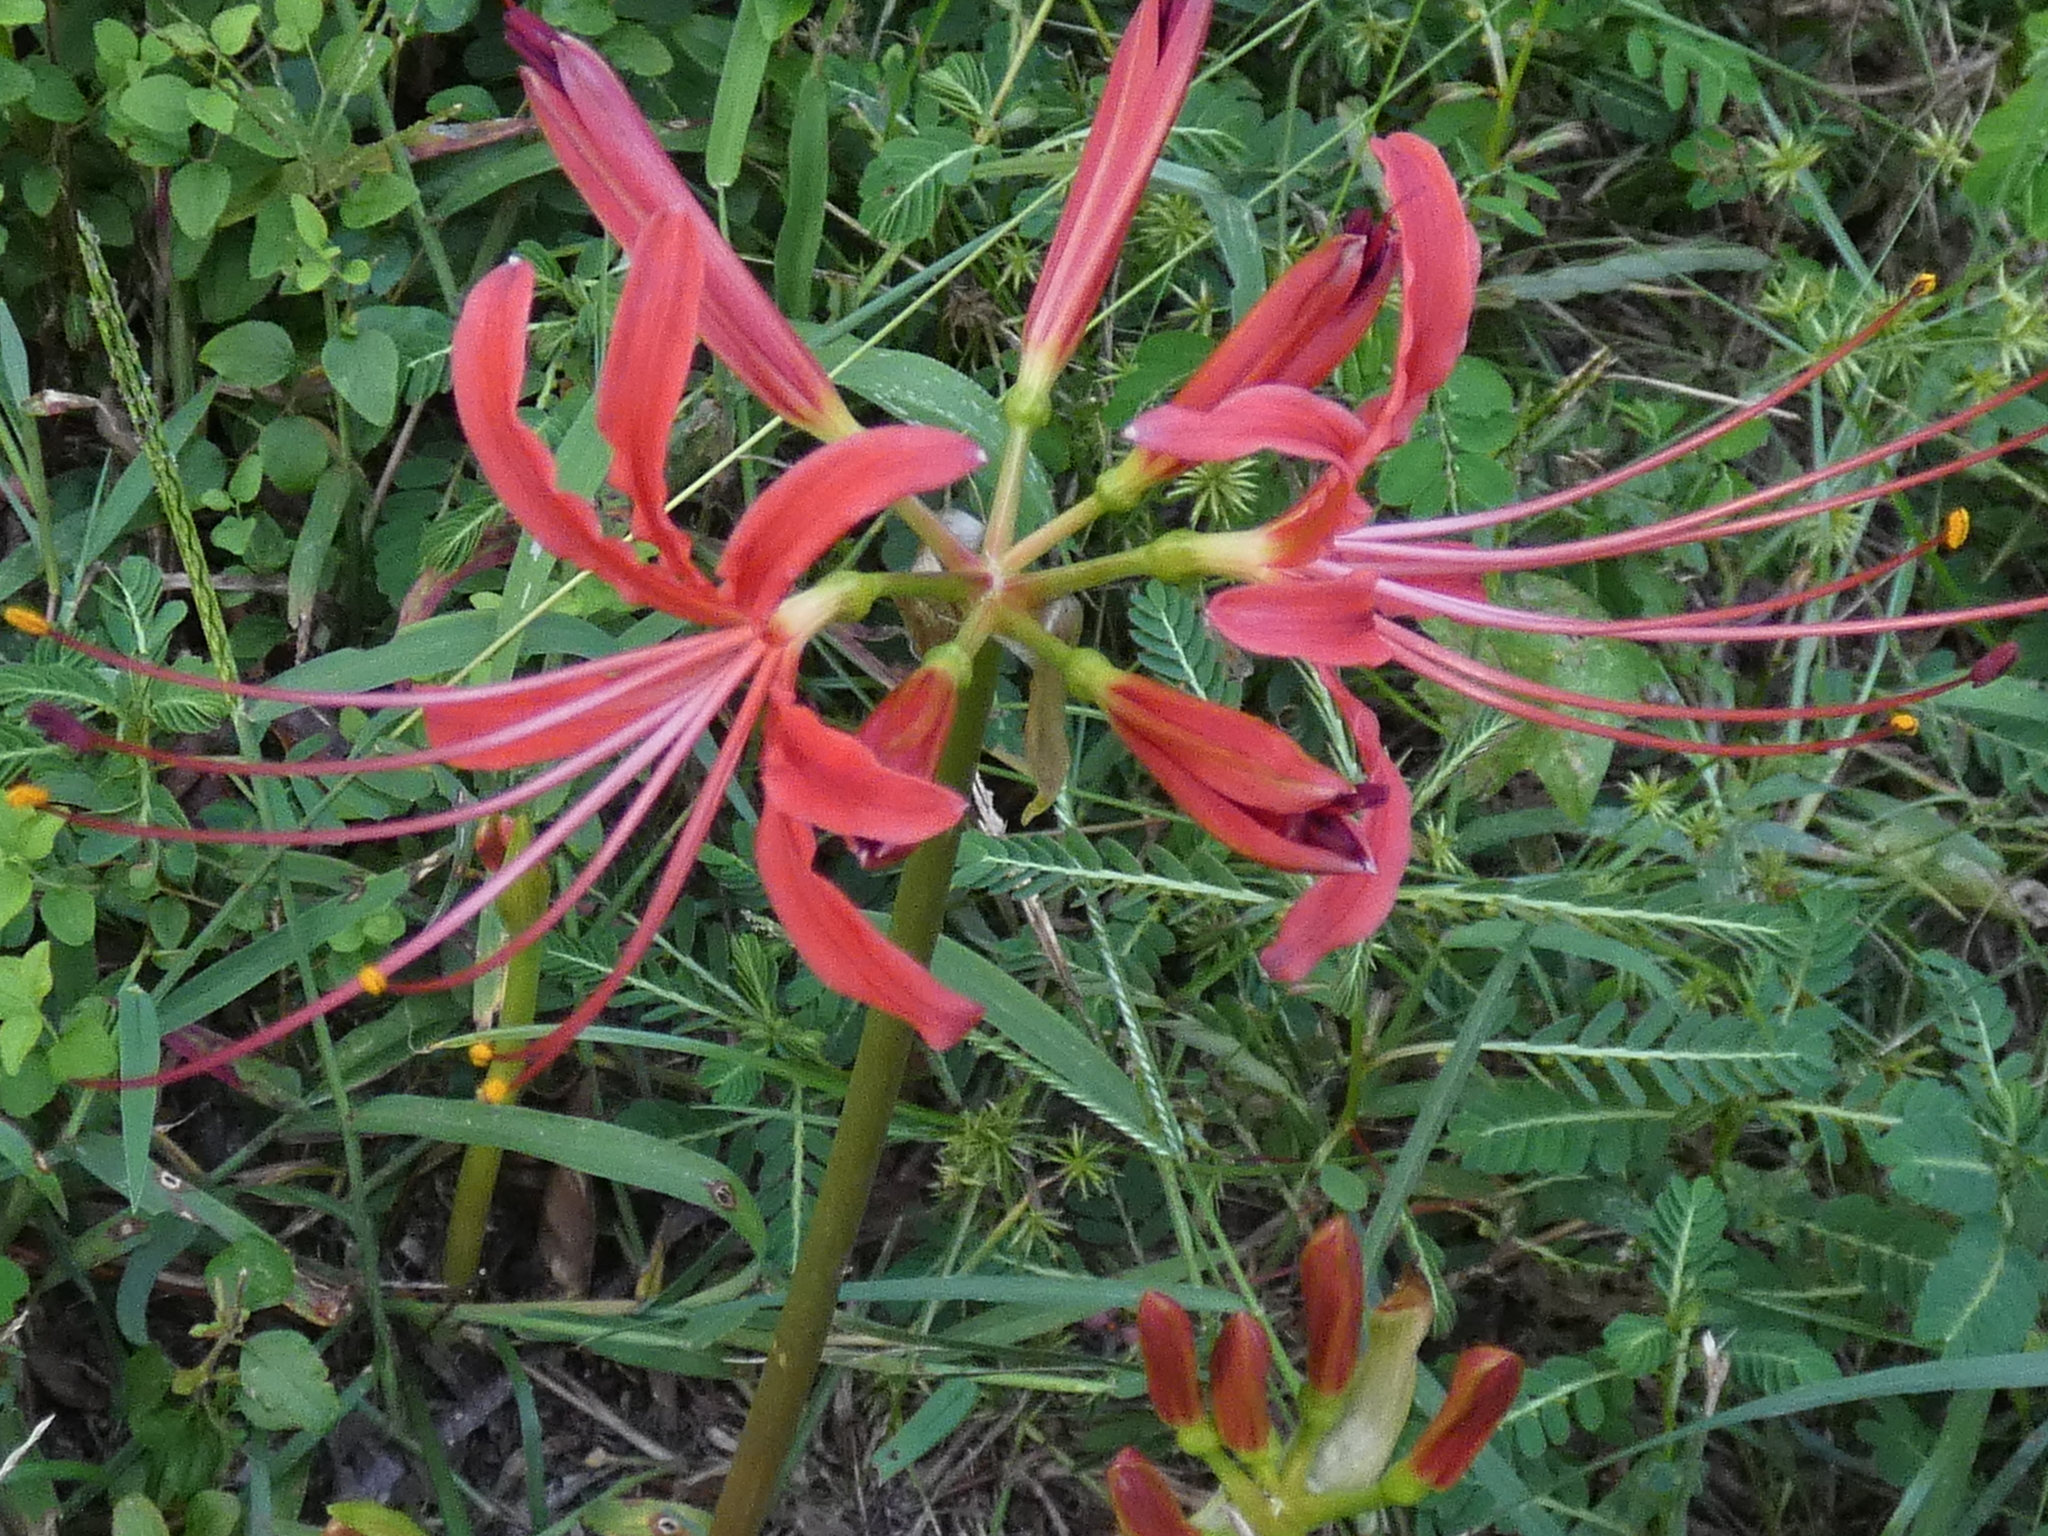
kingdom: Plantae
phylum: Tracheophyta
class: Liliopsida
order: Asparagales
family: Amaryllidaceae
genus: Lycoris
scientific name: Lycoris radiata
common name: Red spider lily
